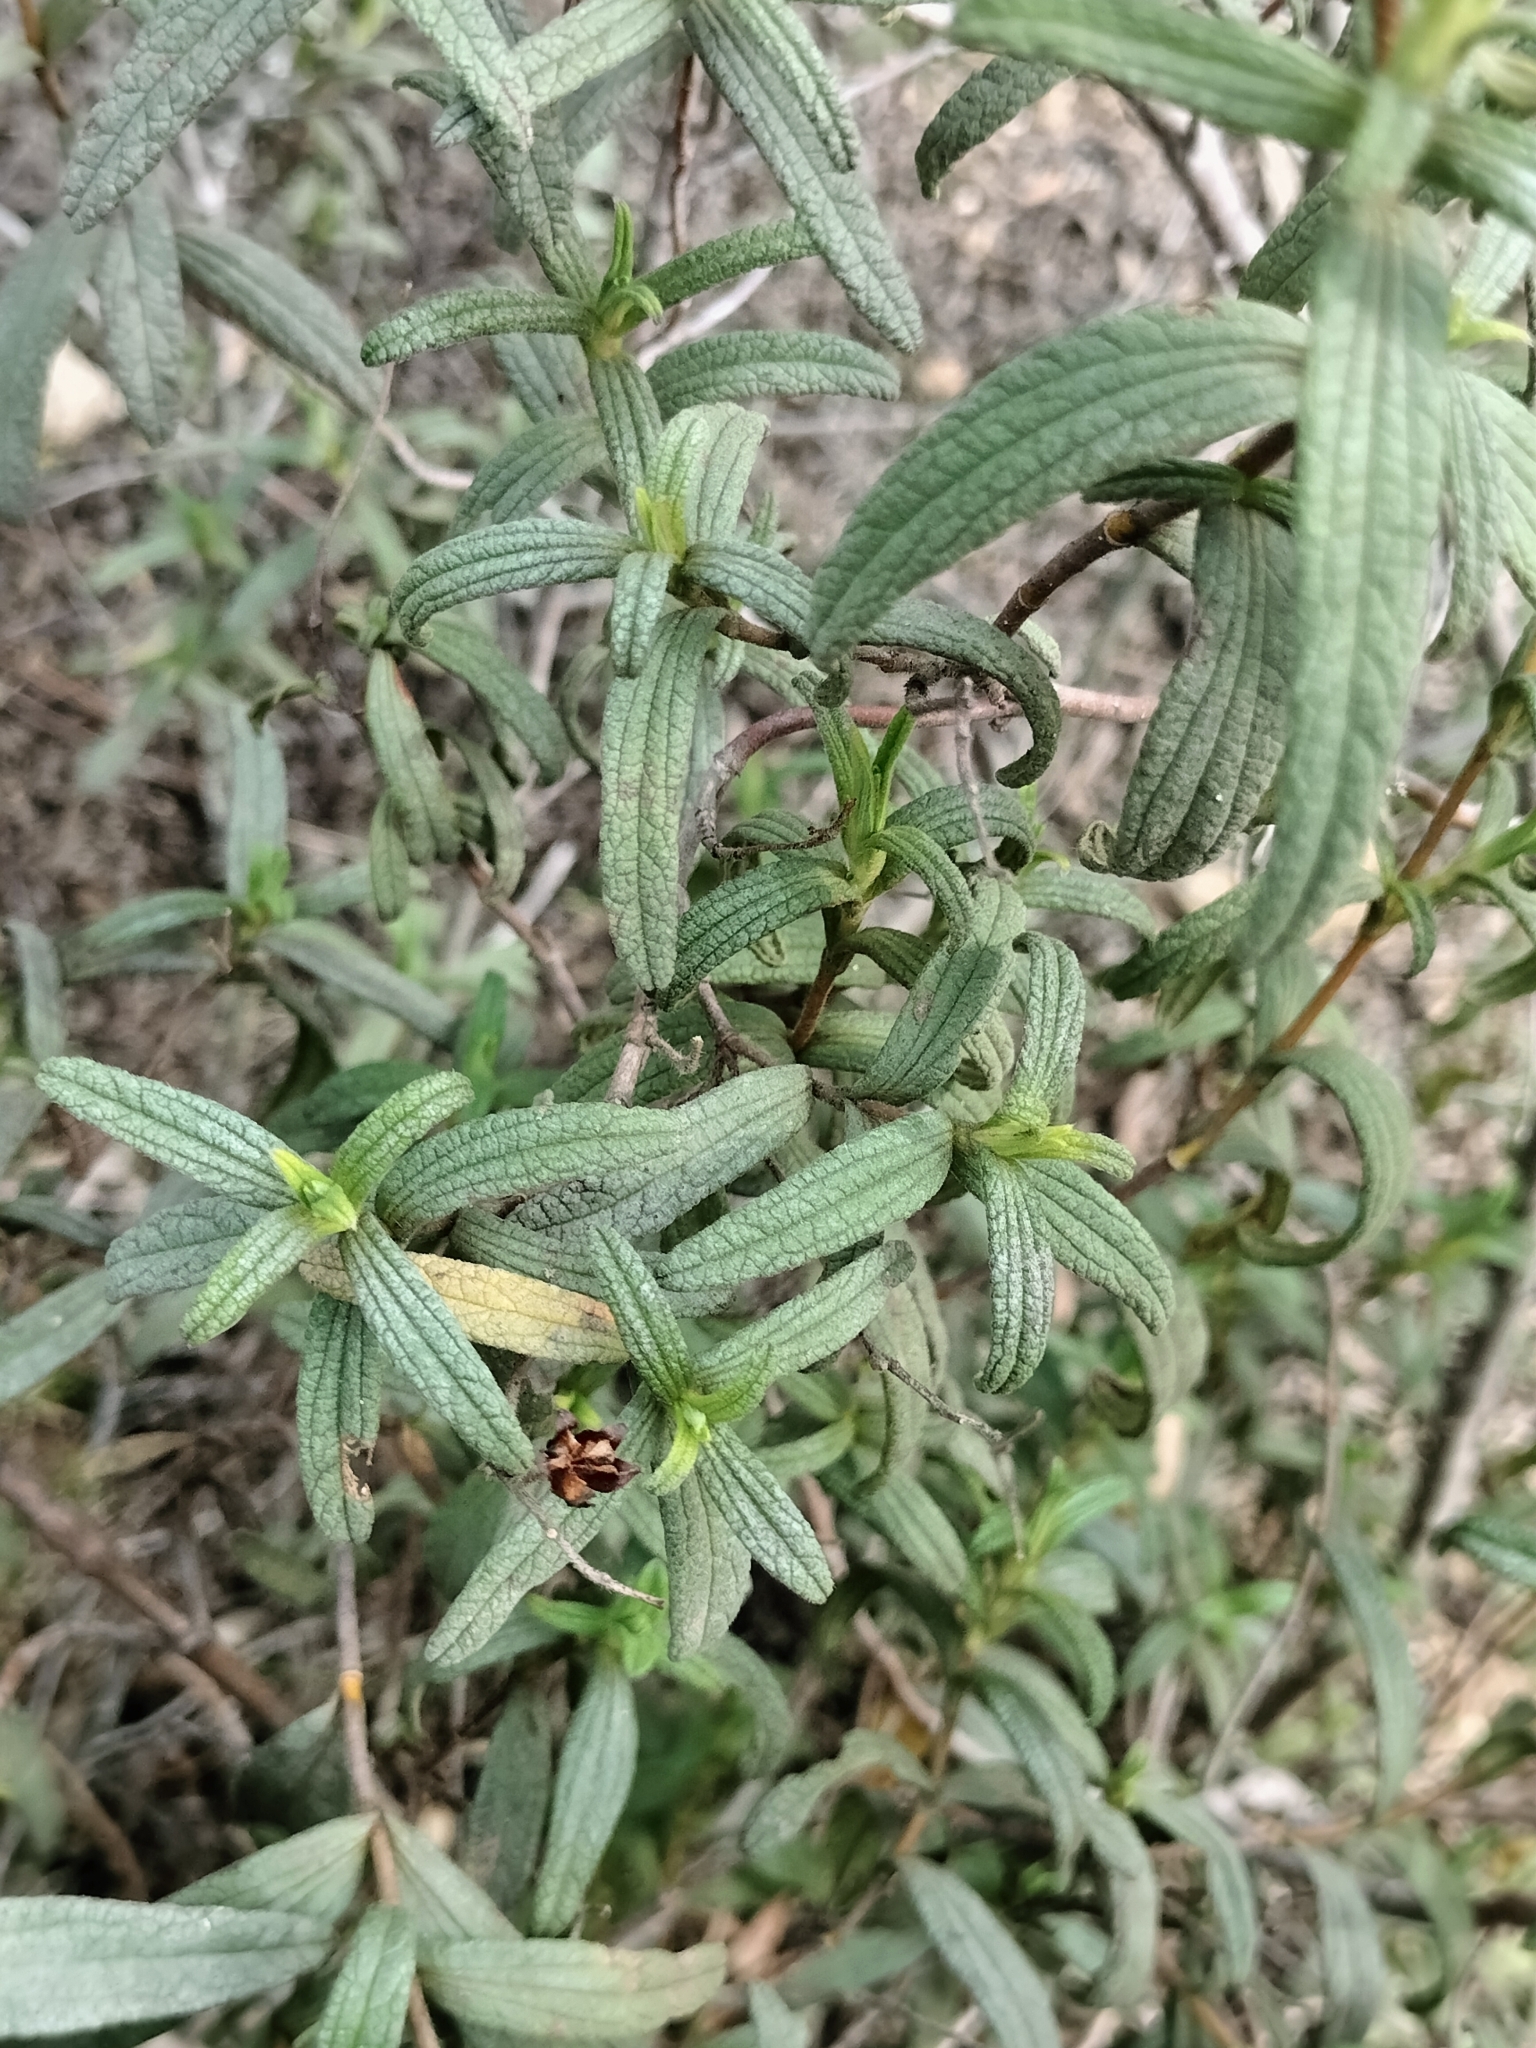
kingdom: Plantae
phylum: Tracheophyta
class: Magnoliopsida
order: Malvales
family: Cistaceae
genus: Cistus
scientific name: Cistus monspeliensis
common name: Montpelier cistus
